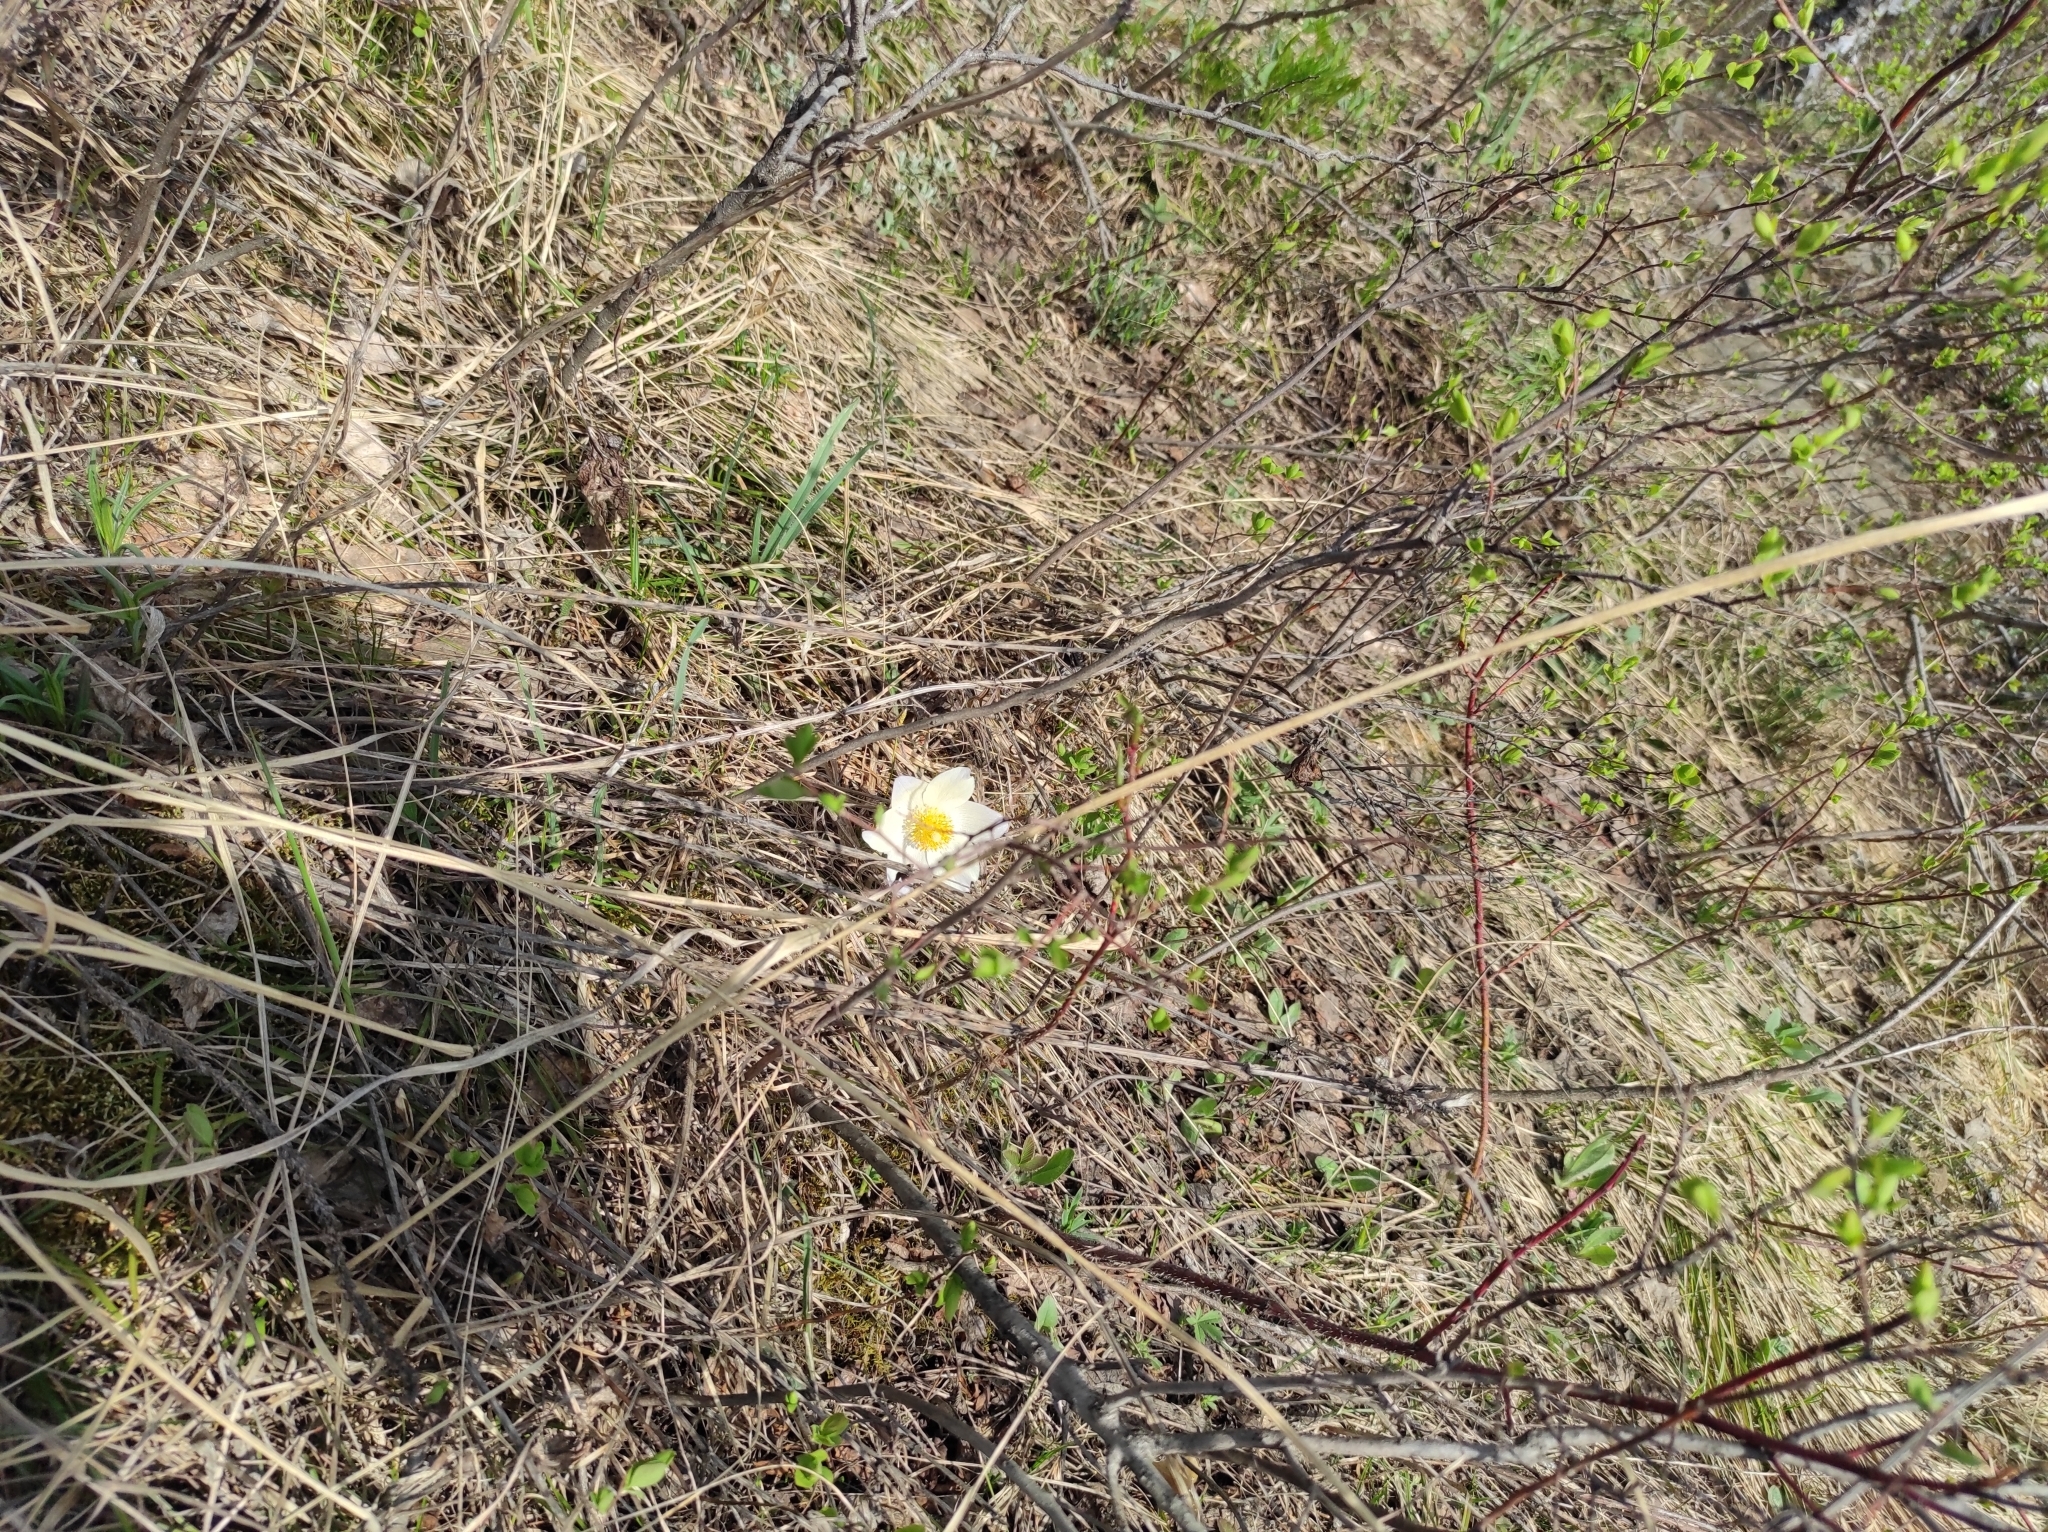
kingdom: Plantae
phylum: Tracheophyta
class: Magnoliopsida
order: Ranunculales
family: Ranunculaceae
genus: Pulsatilla
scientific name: Pulsatilla patens
